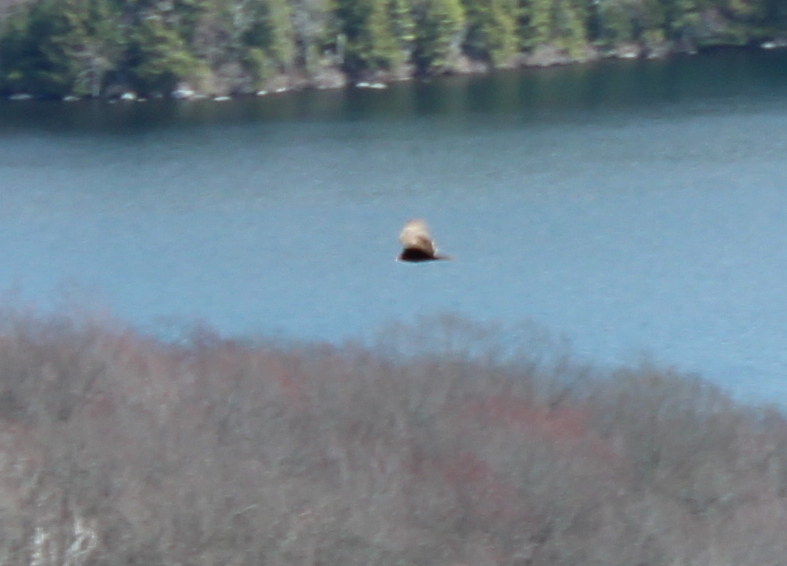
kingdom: Animalia
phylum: Chordata
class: Aves
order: Accipitriformes
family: Cathartidae
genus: Cathartes
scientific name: Cathartes aura
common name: Turkey vulture
